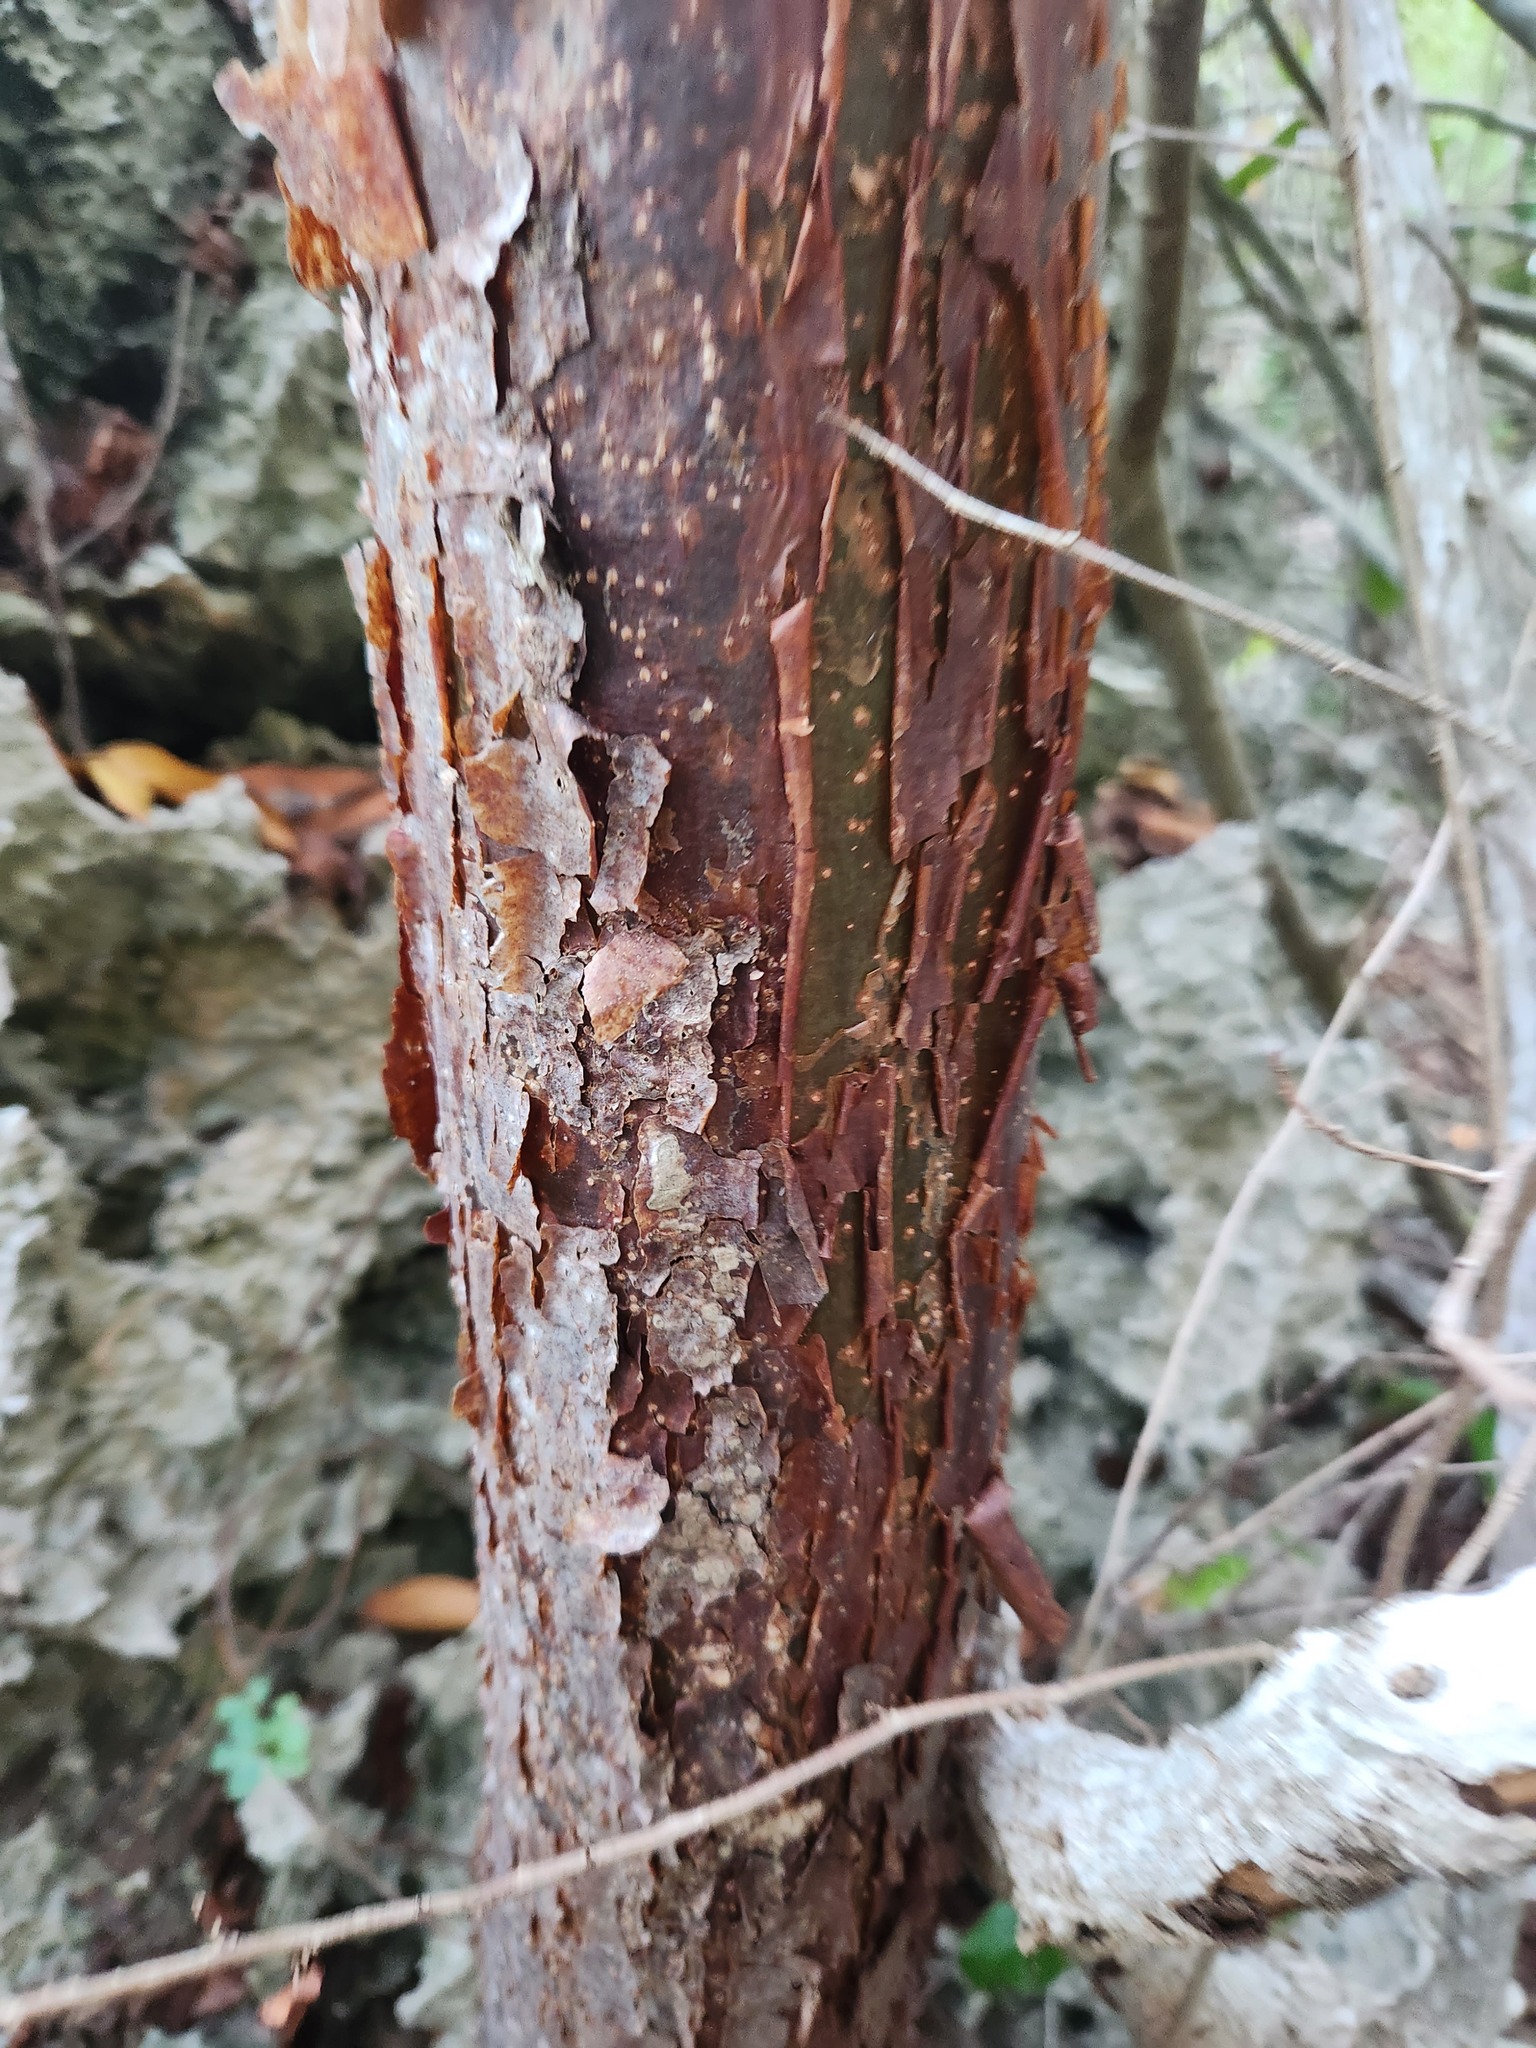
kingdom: Plantae
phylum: Tracheophyta
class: Magnoliopsida
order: Sapindales
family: Burseraceae
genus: Bursera
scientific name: Bursera simaruba
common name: Turpentine tree
